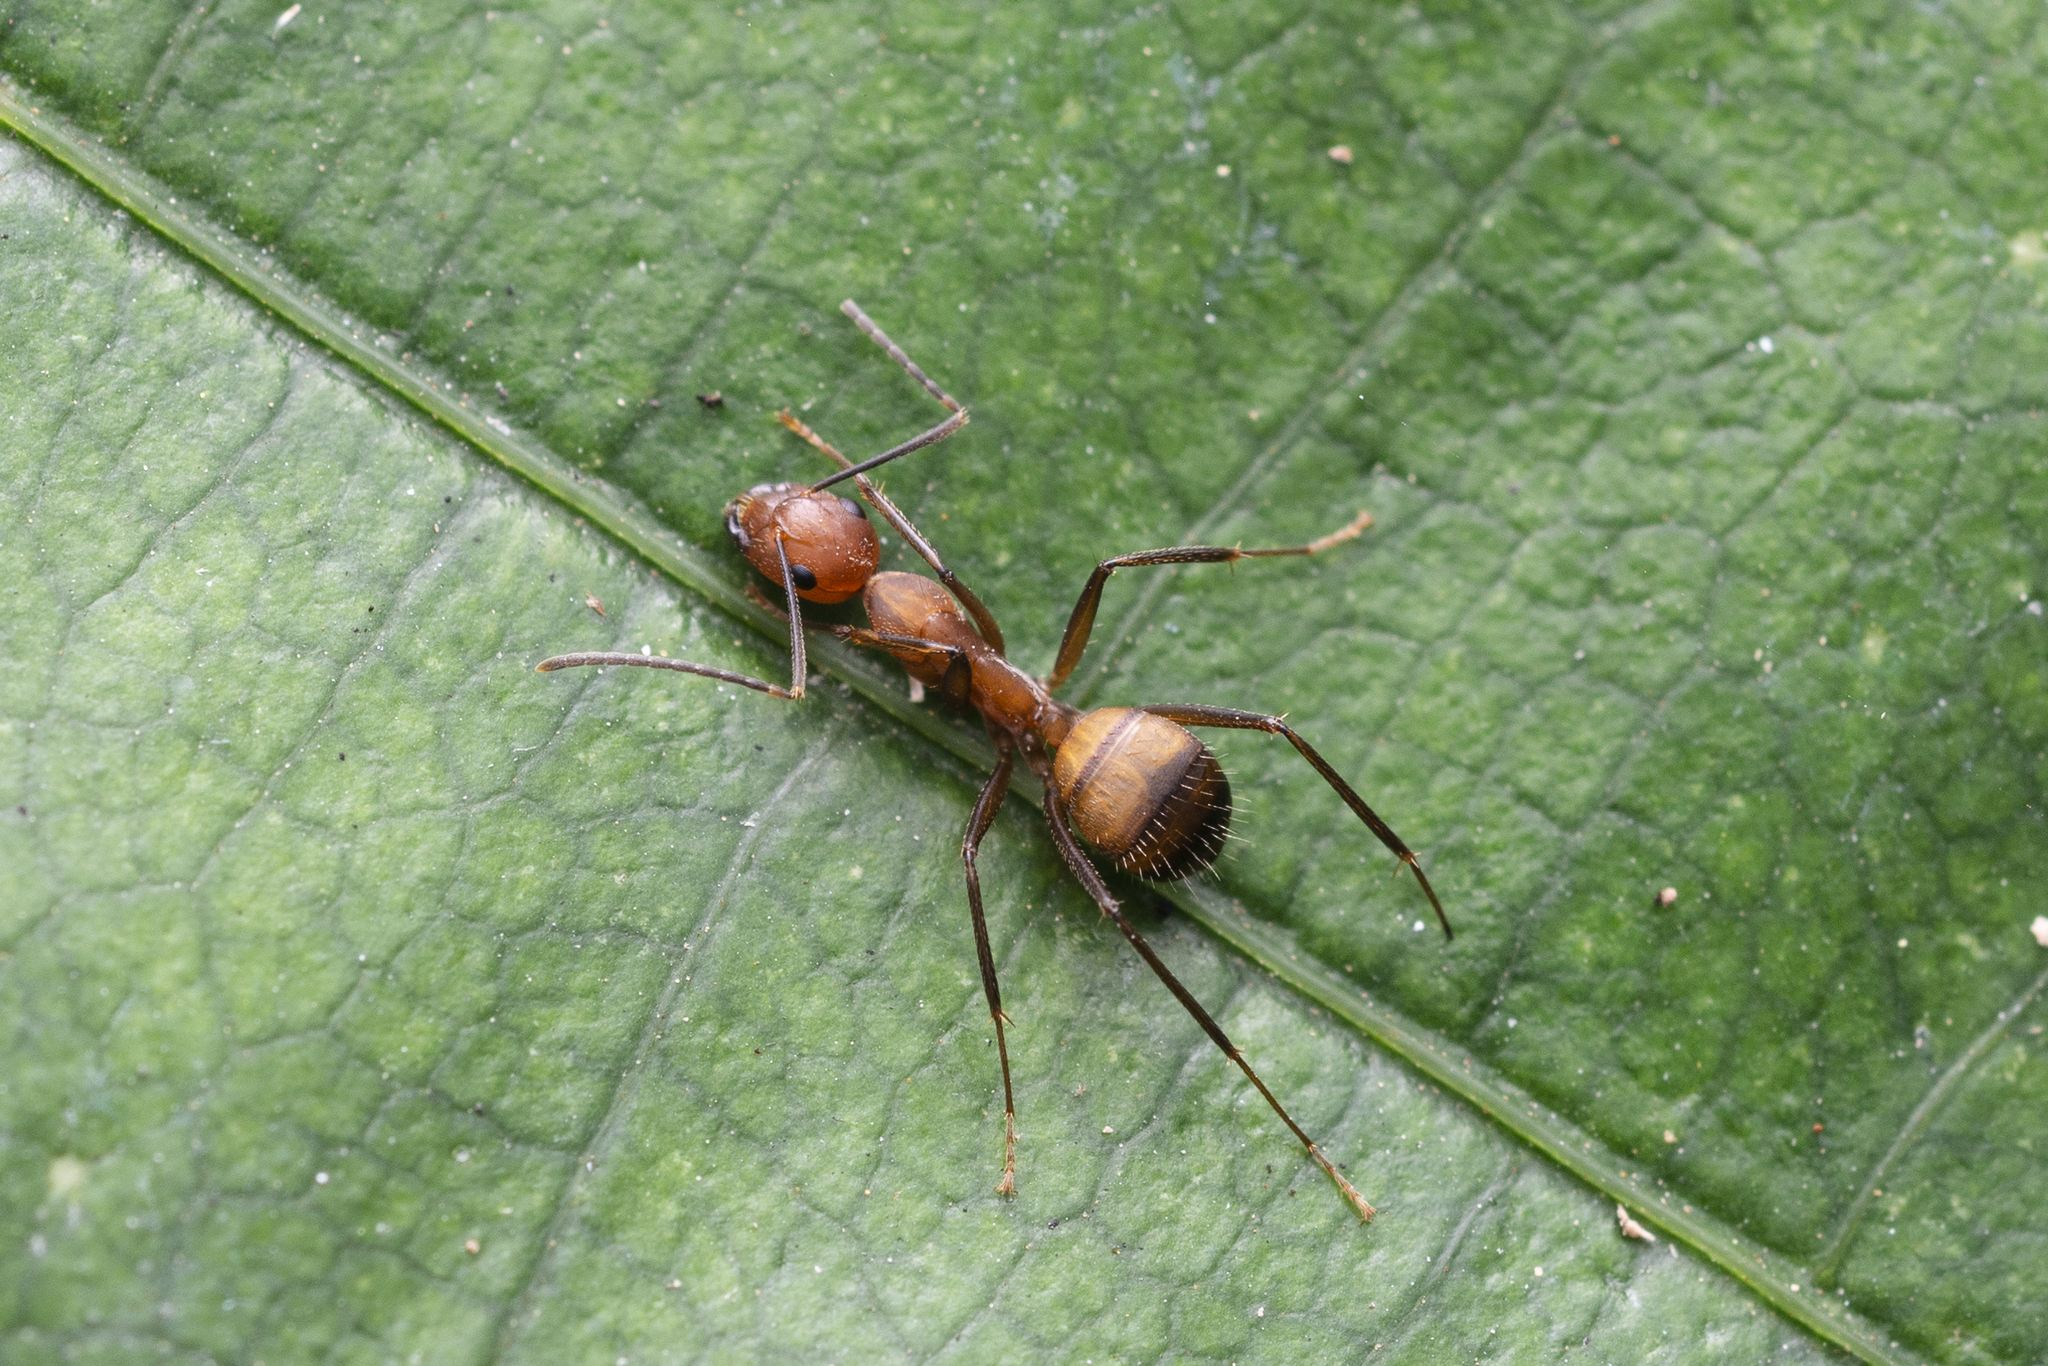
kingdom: Animalia
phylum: Arthropoda
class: Insecta
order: Hymenoptera
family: Formicidae
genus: Camponotus
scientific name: Camponotus nicobarensis
